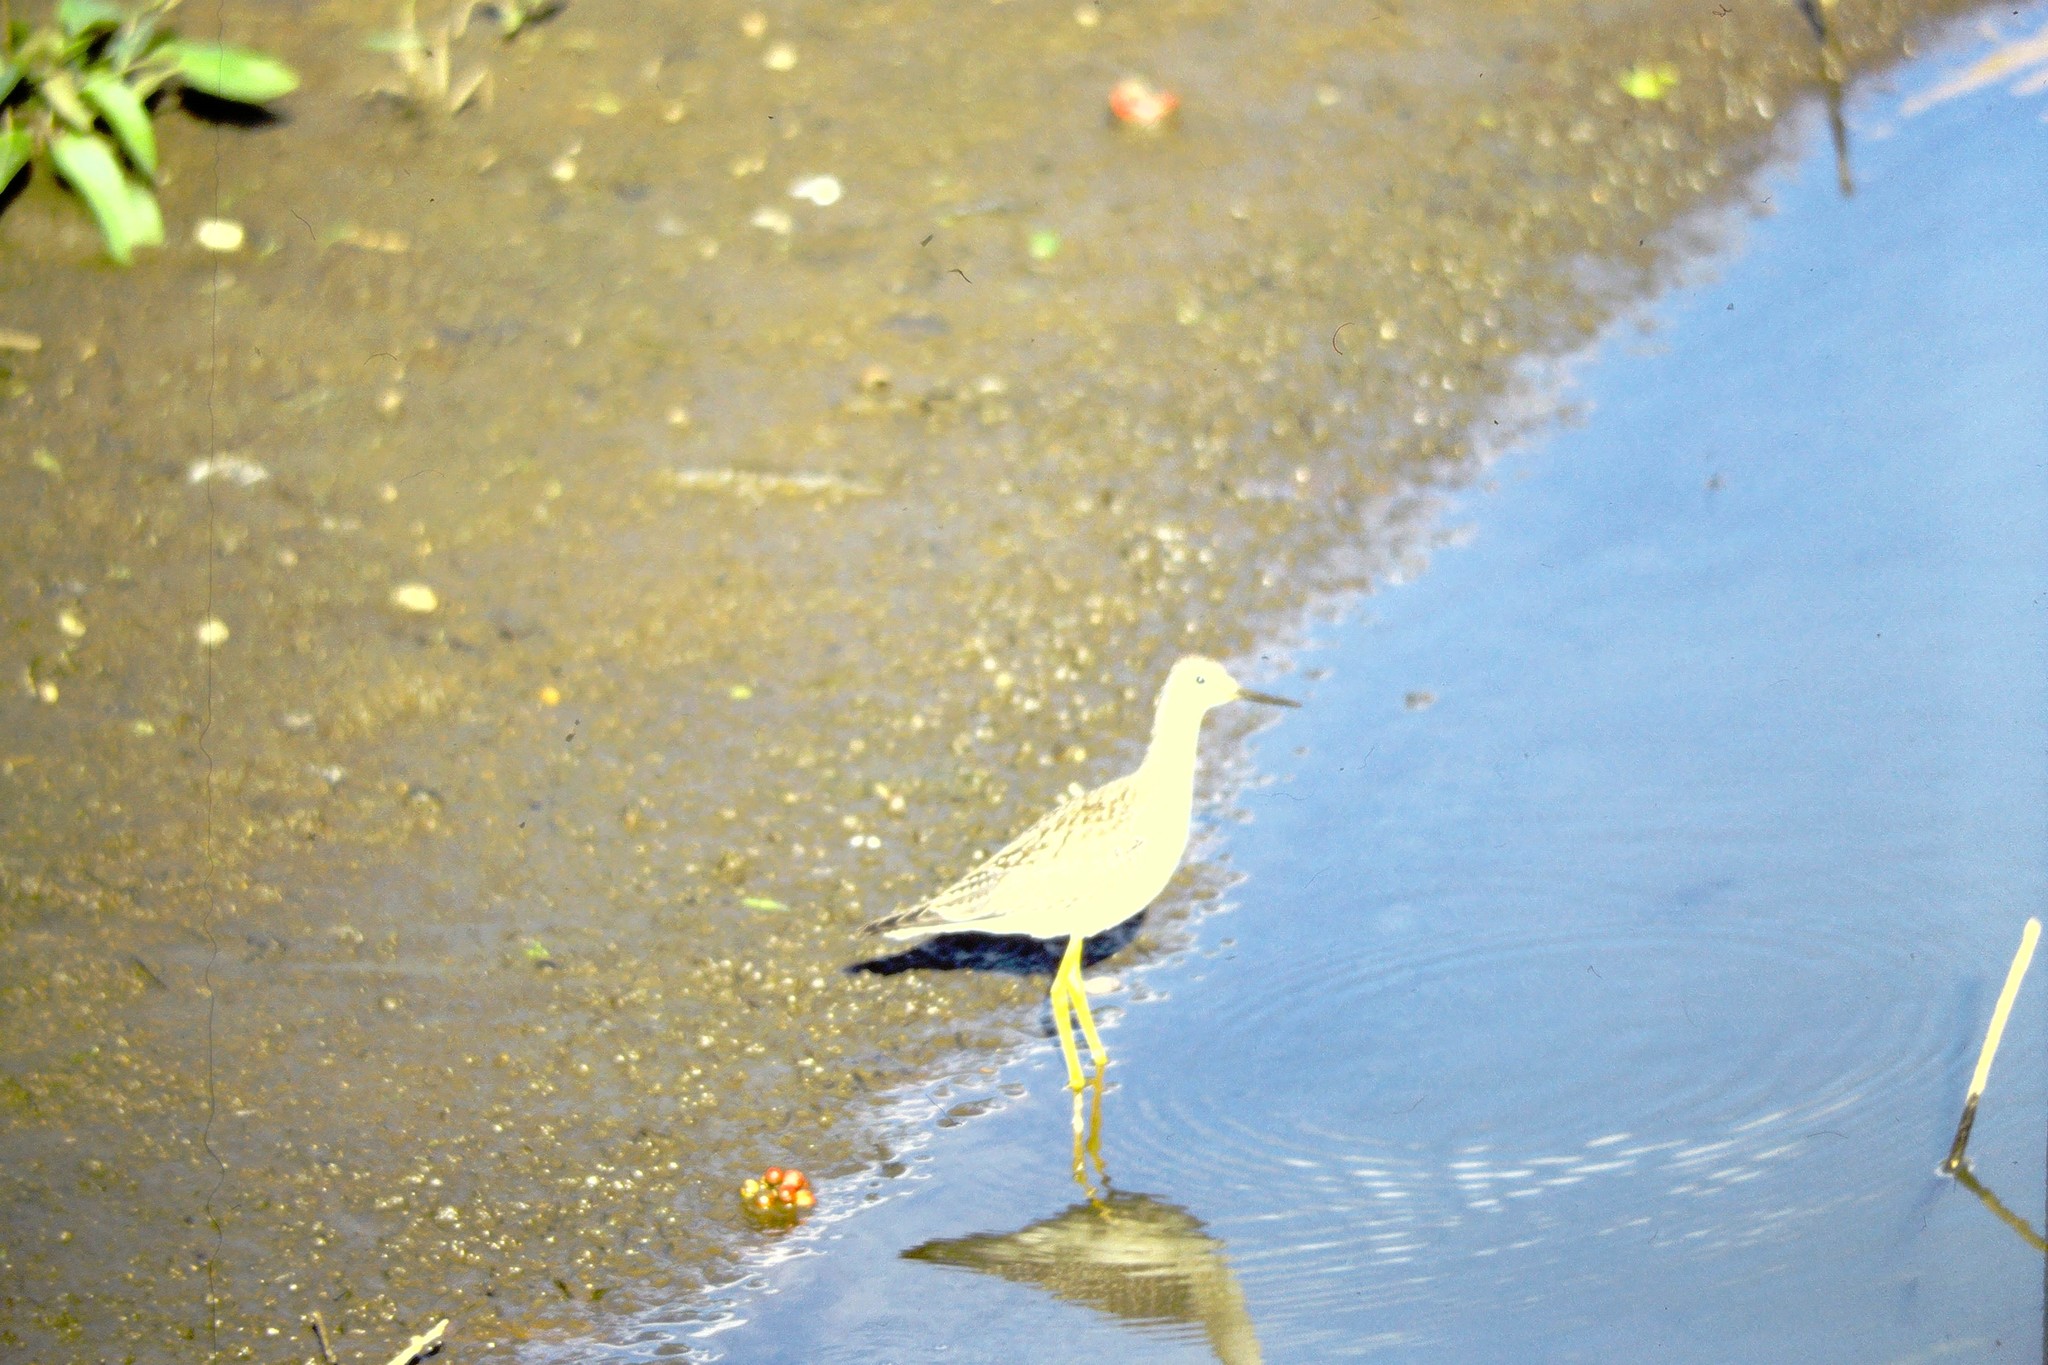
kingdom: Animalia
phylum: Chordata
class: Aves
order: Charadriiformes
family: Scolopacidae
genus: Tringa
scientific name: Tringa flavipes
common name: Lesser yellowlegs
